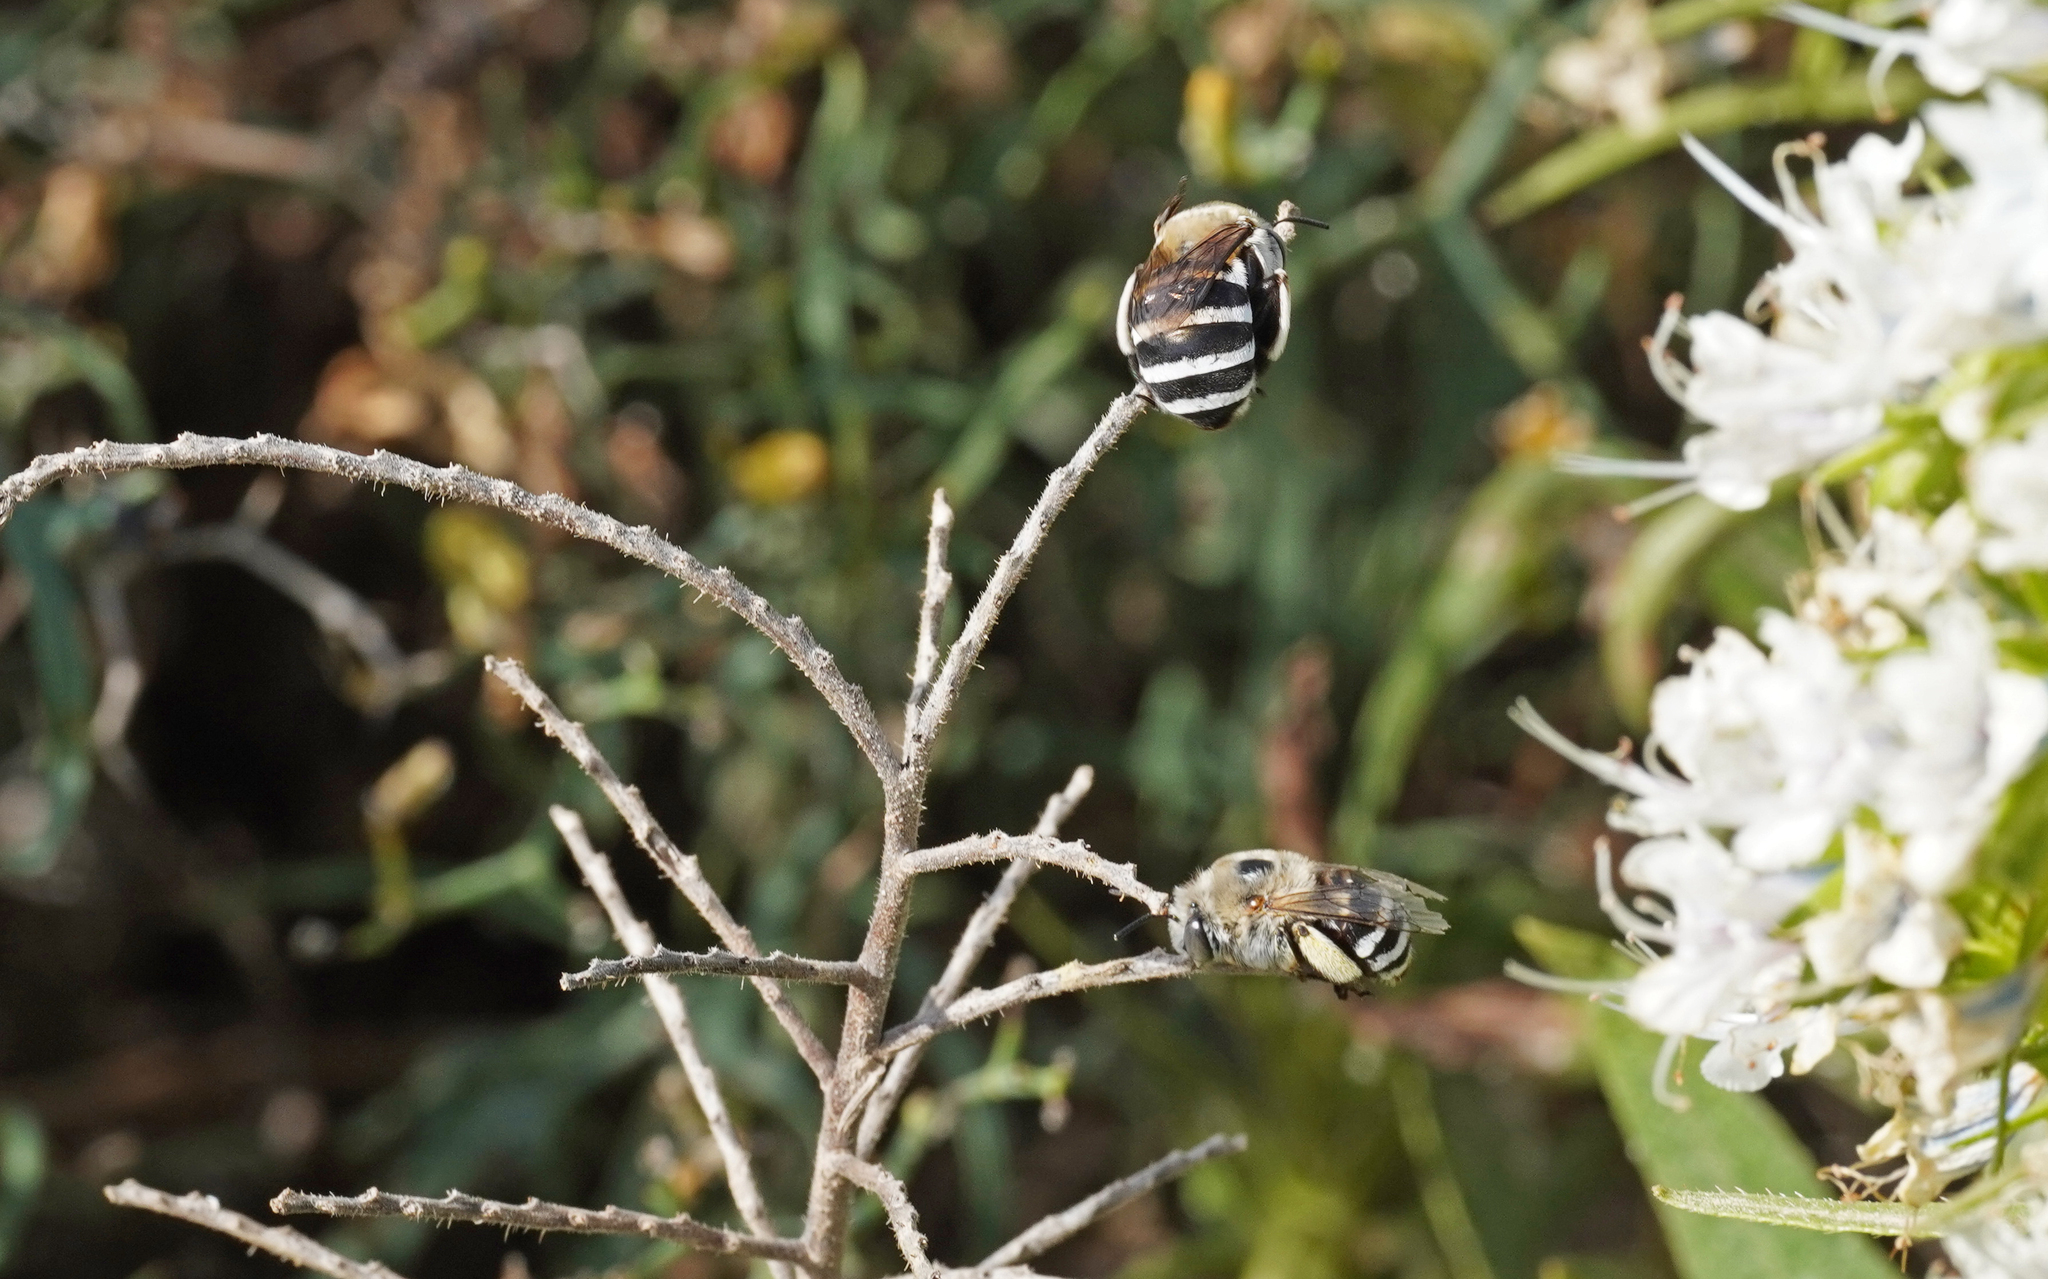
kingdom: Animalia
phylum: Arthropoda
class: Insecta
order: Hymenoptera
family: Apidae
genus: Amegilla
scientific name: Amegilla quadrifasciata
